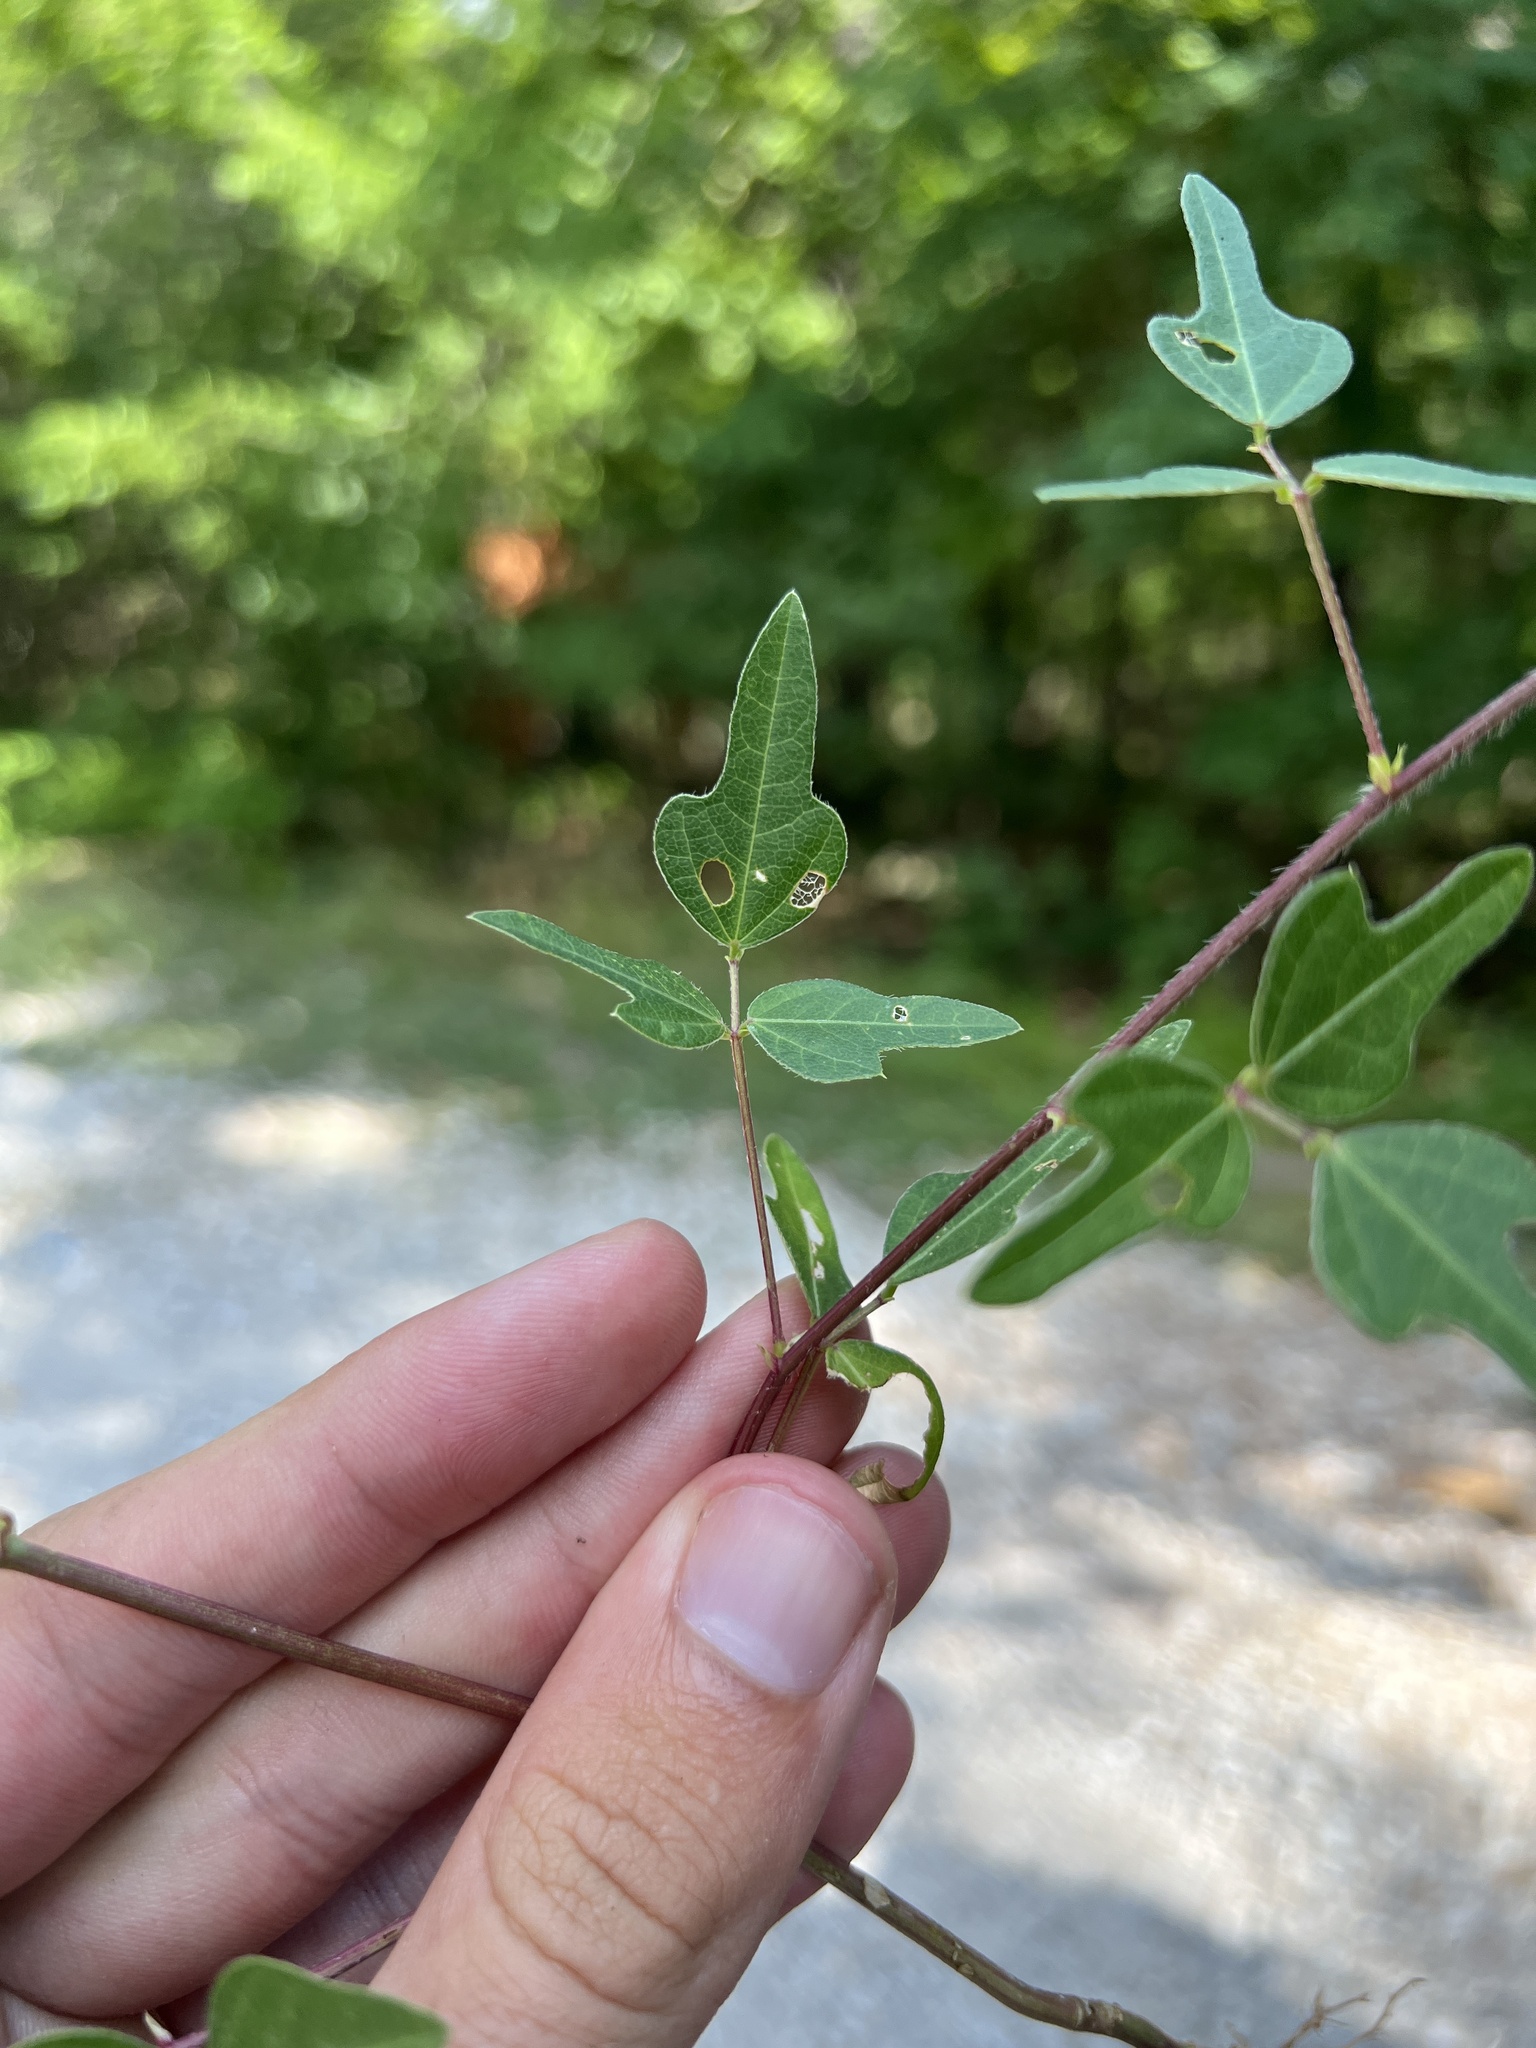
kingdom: Plantae
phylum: Tracheophyta
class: Magnoliopsida
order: Fabales
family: Fabaceae
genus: Strophostyles
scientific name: Strophostyles helvola
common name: Trailing wild bean
